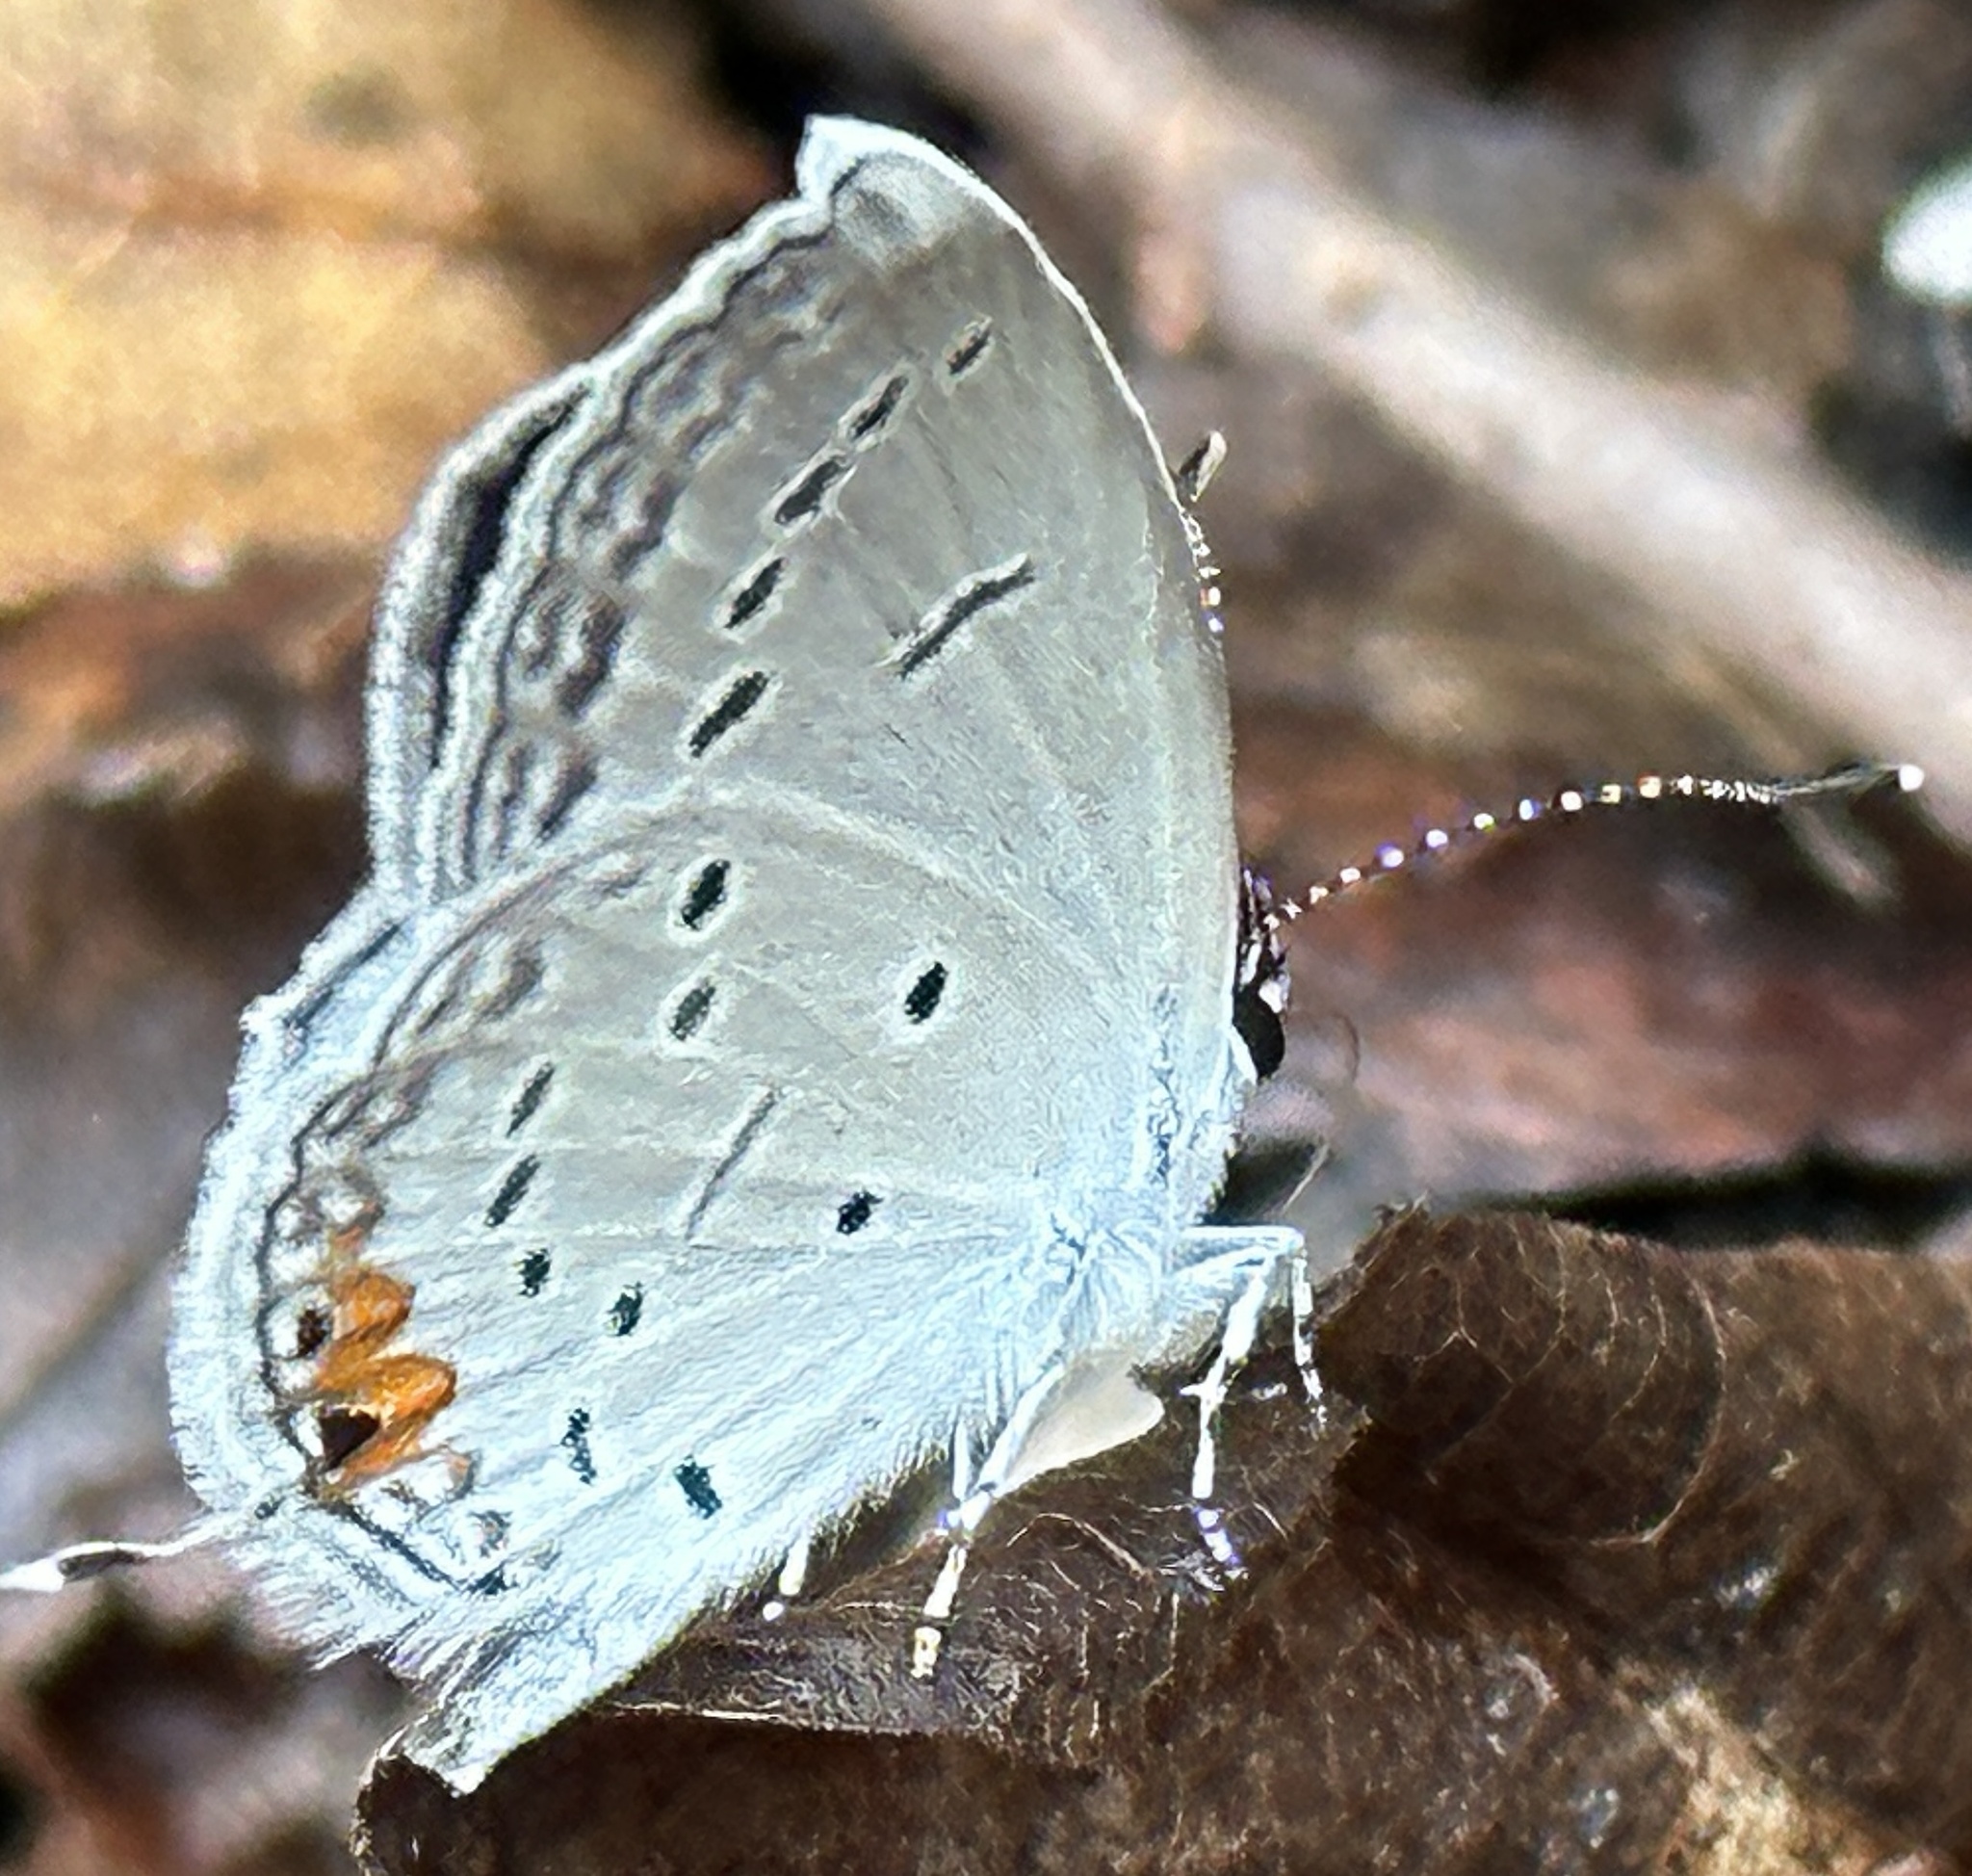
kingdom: Animalia
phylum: Arthropoda
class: Insecta
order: Lepidoptera
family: Lycaenidae
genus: Elkalyce
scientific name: Elkalyce comyntas
